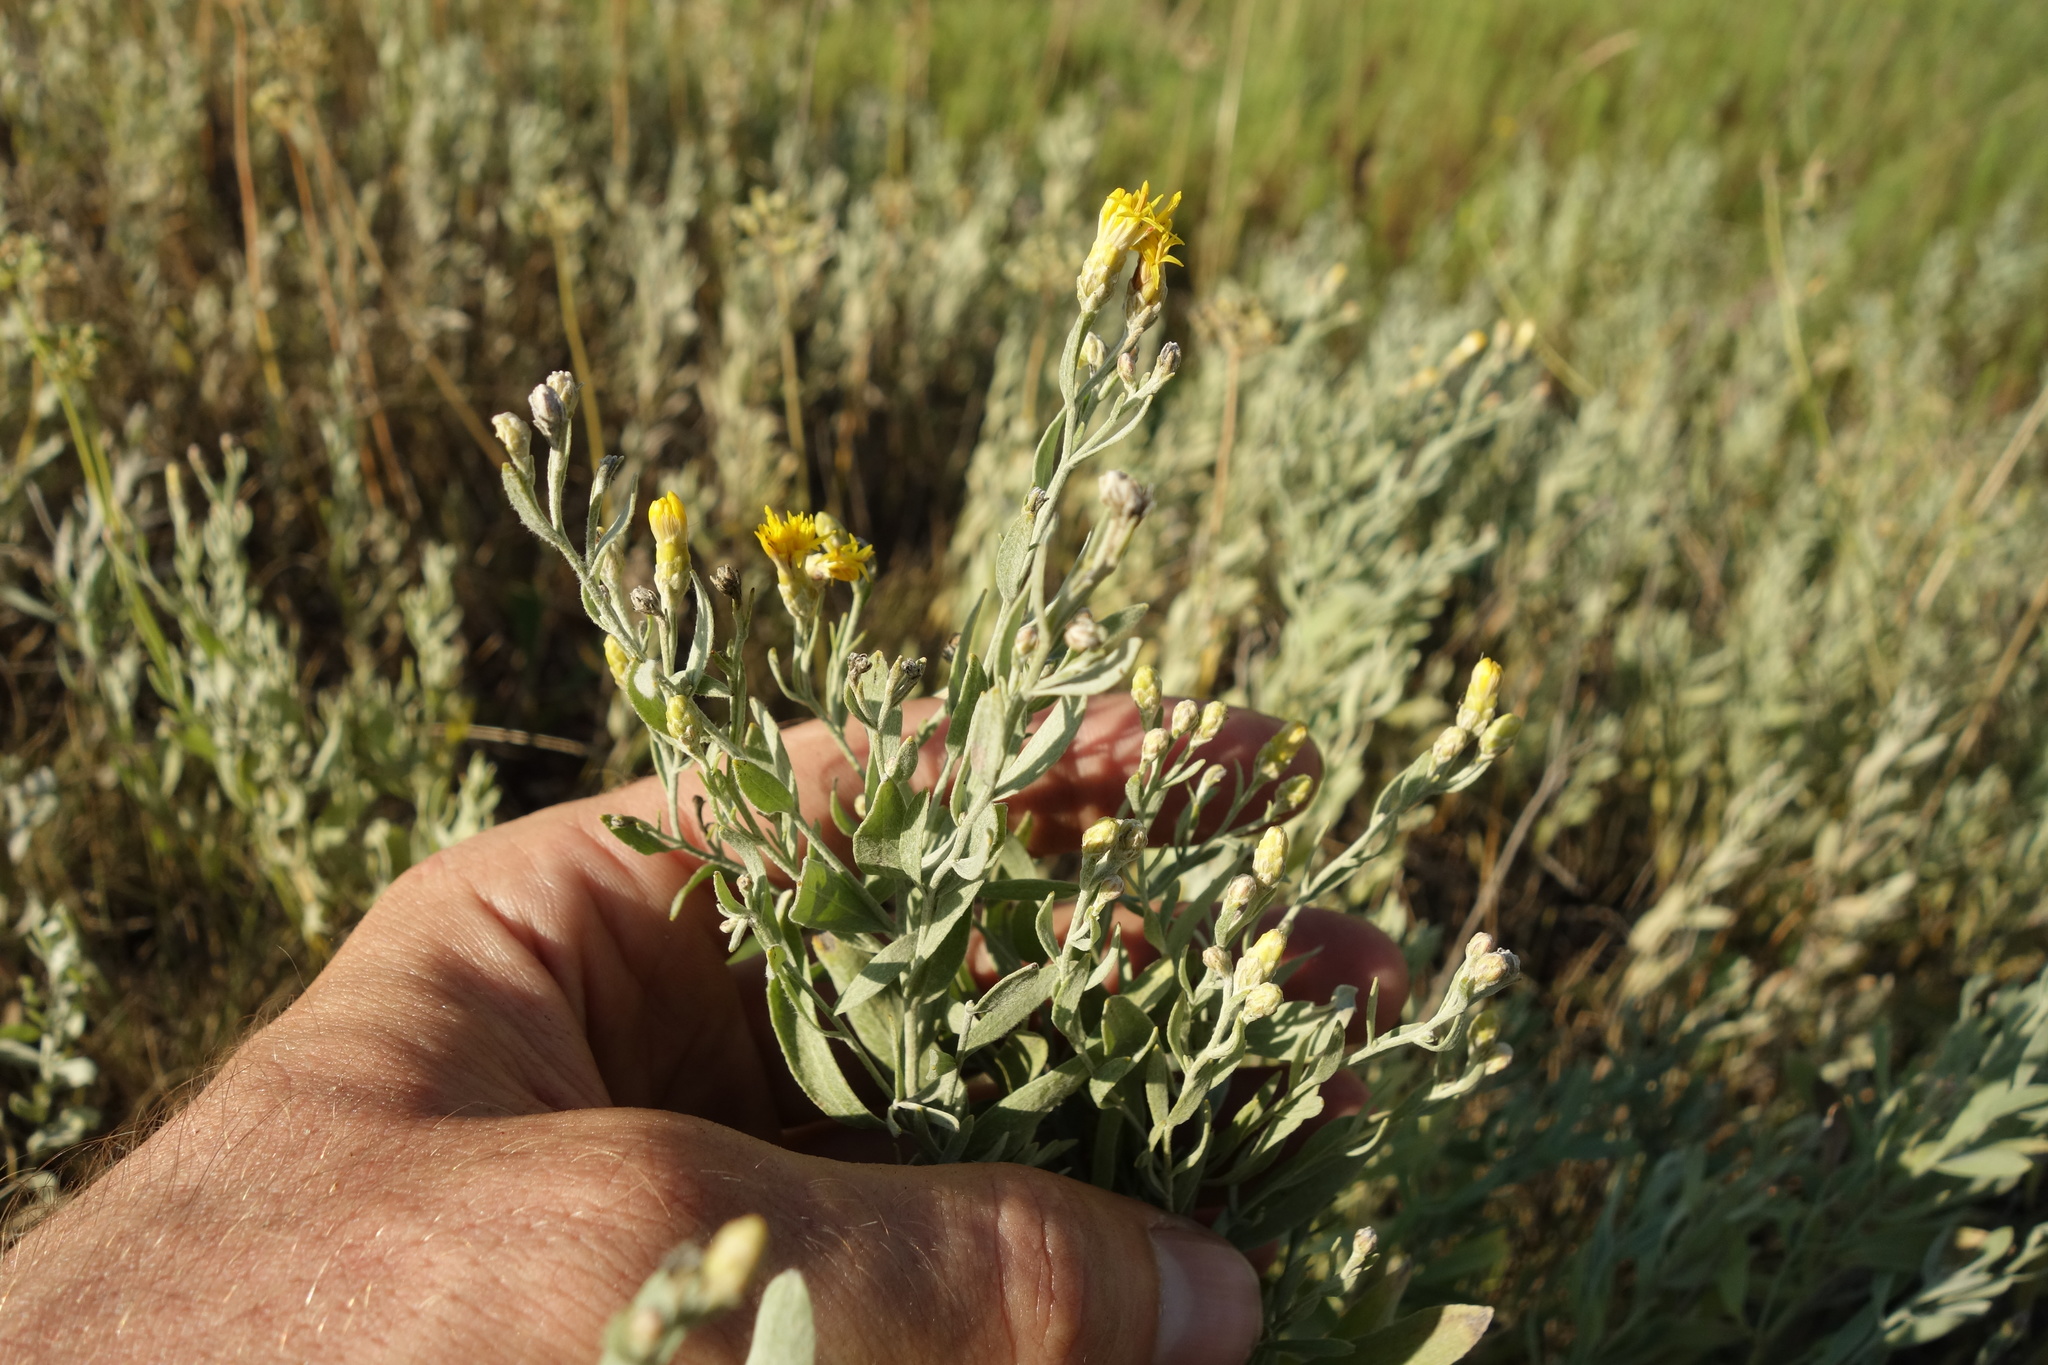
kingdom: Plantae
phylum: Tracheophyta
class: Magnoliopsida
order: Asterales
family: Asteraceae
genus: Galatella
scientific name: Galatella villosa
